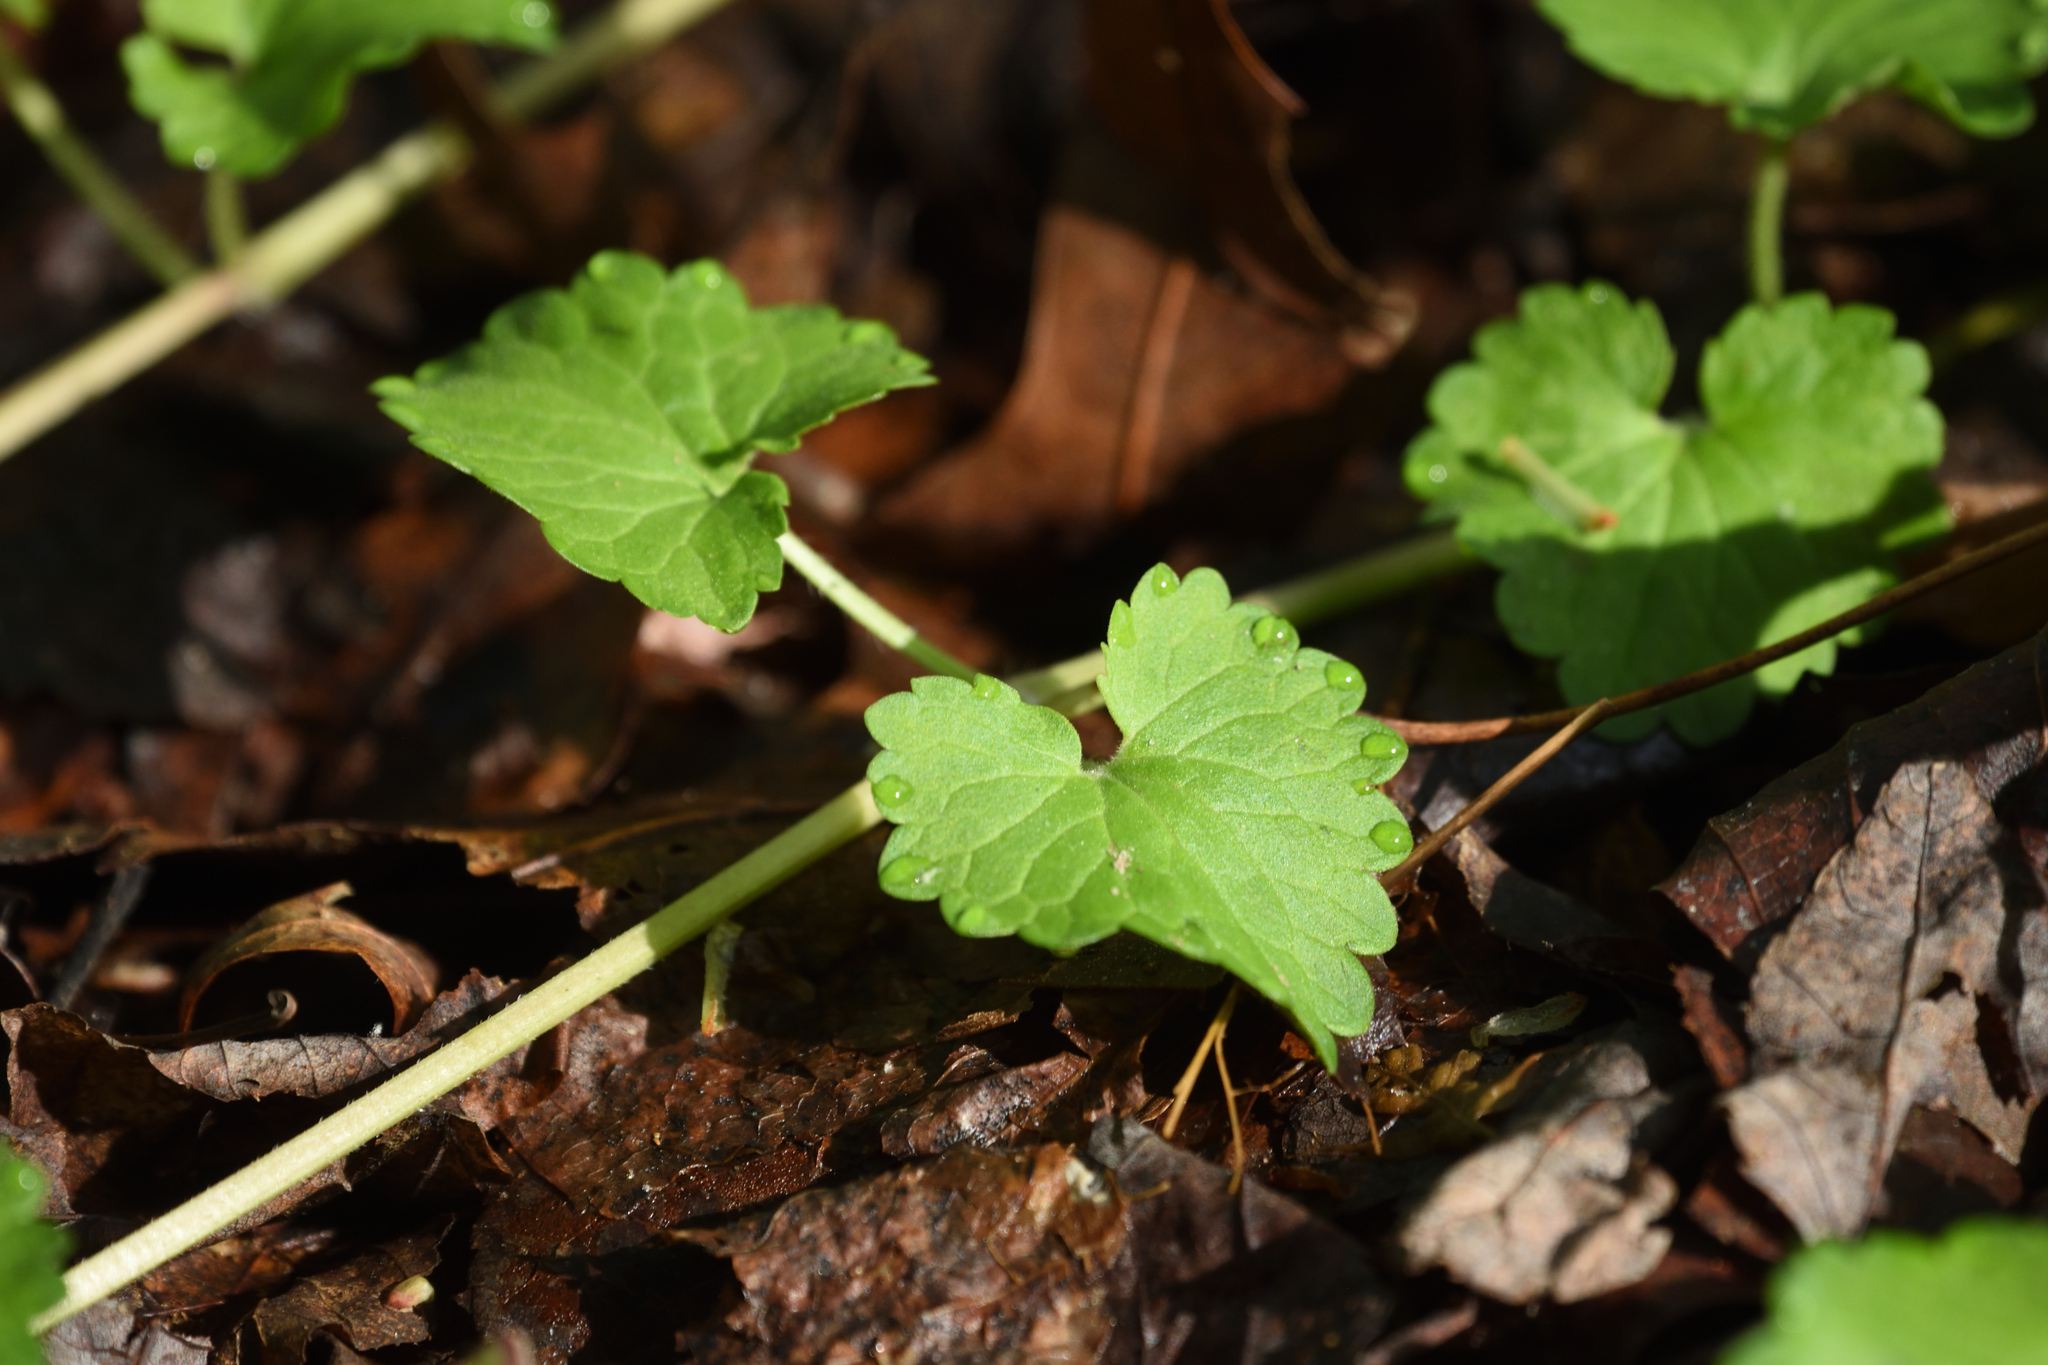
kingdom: Plantae
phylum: Tracheophyta
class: Magnoliopsida
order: Lamiales
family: Lamiaceae
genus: Glechoma
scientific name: Glechoma hederacea
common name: Ground ivy
